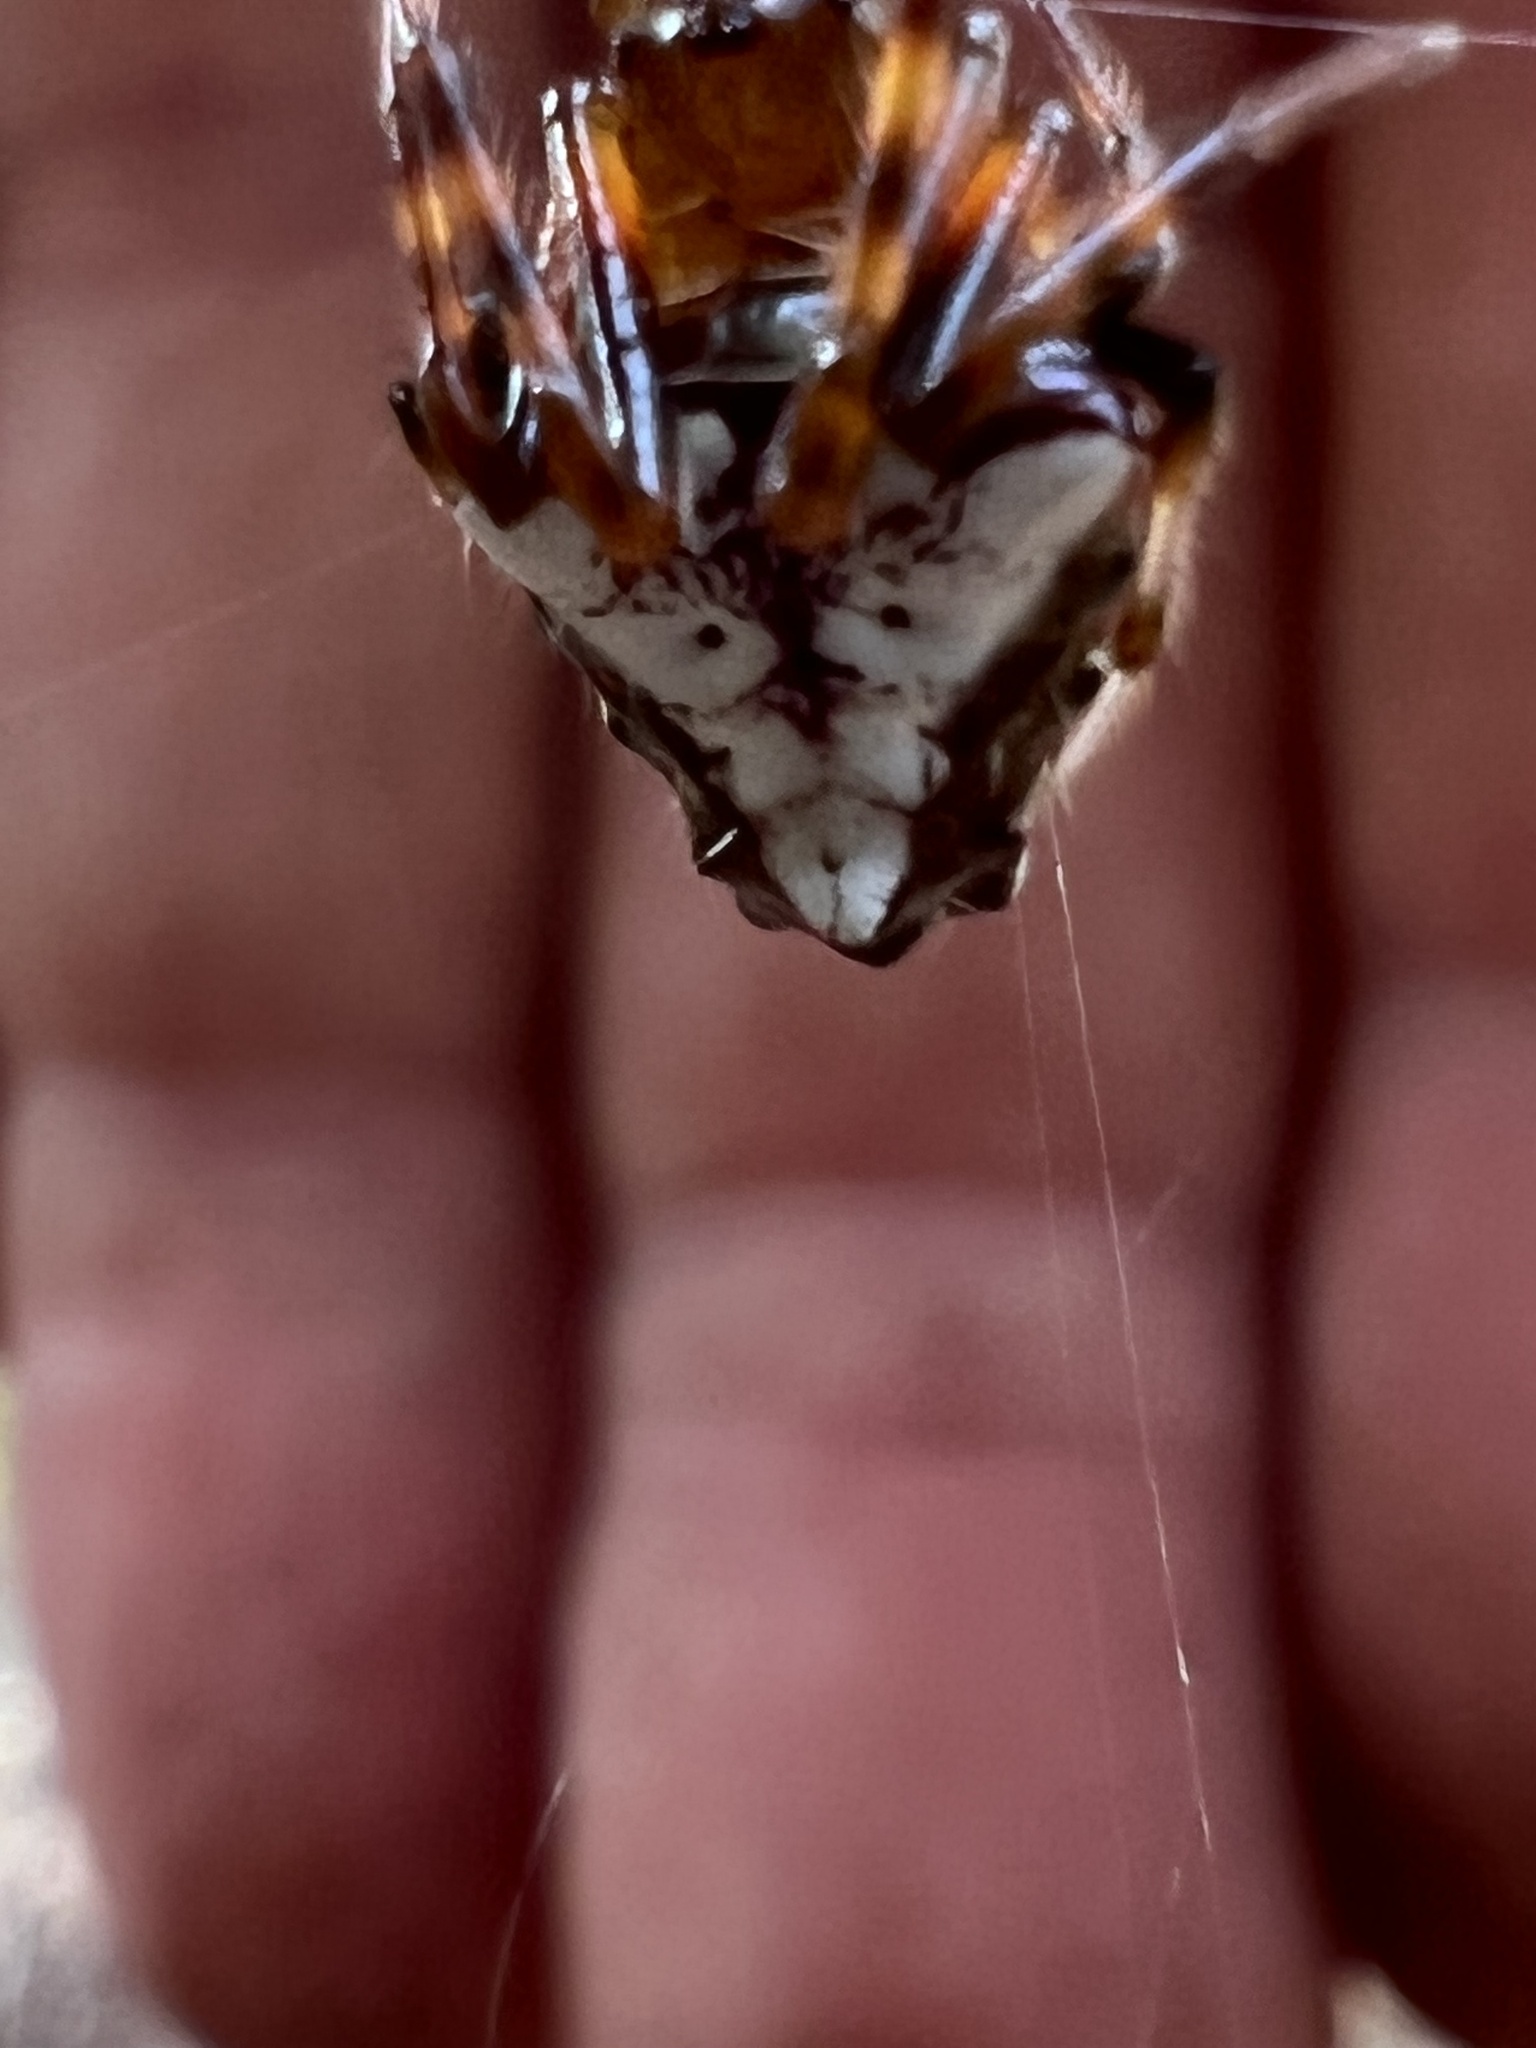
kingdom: Animalia
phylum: Arthropoda
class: Arachnida
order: Araneae
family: Araneidae
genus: Verrucosa
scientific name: Verrucosa arenata
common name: Orb weavers
